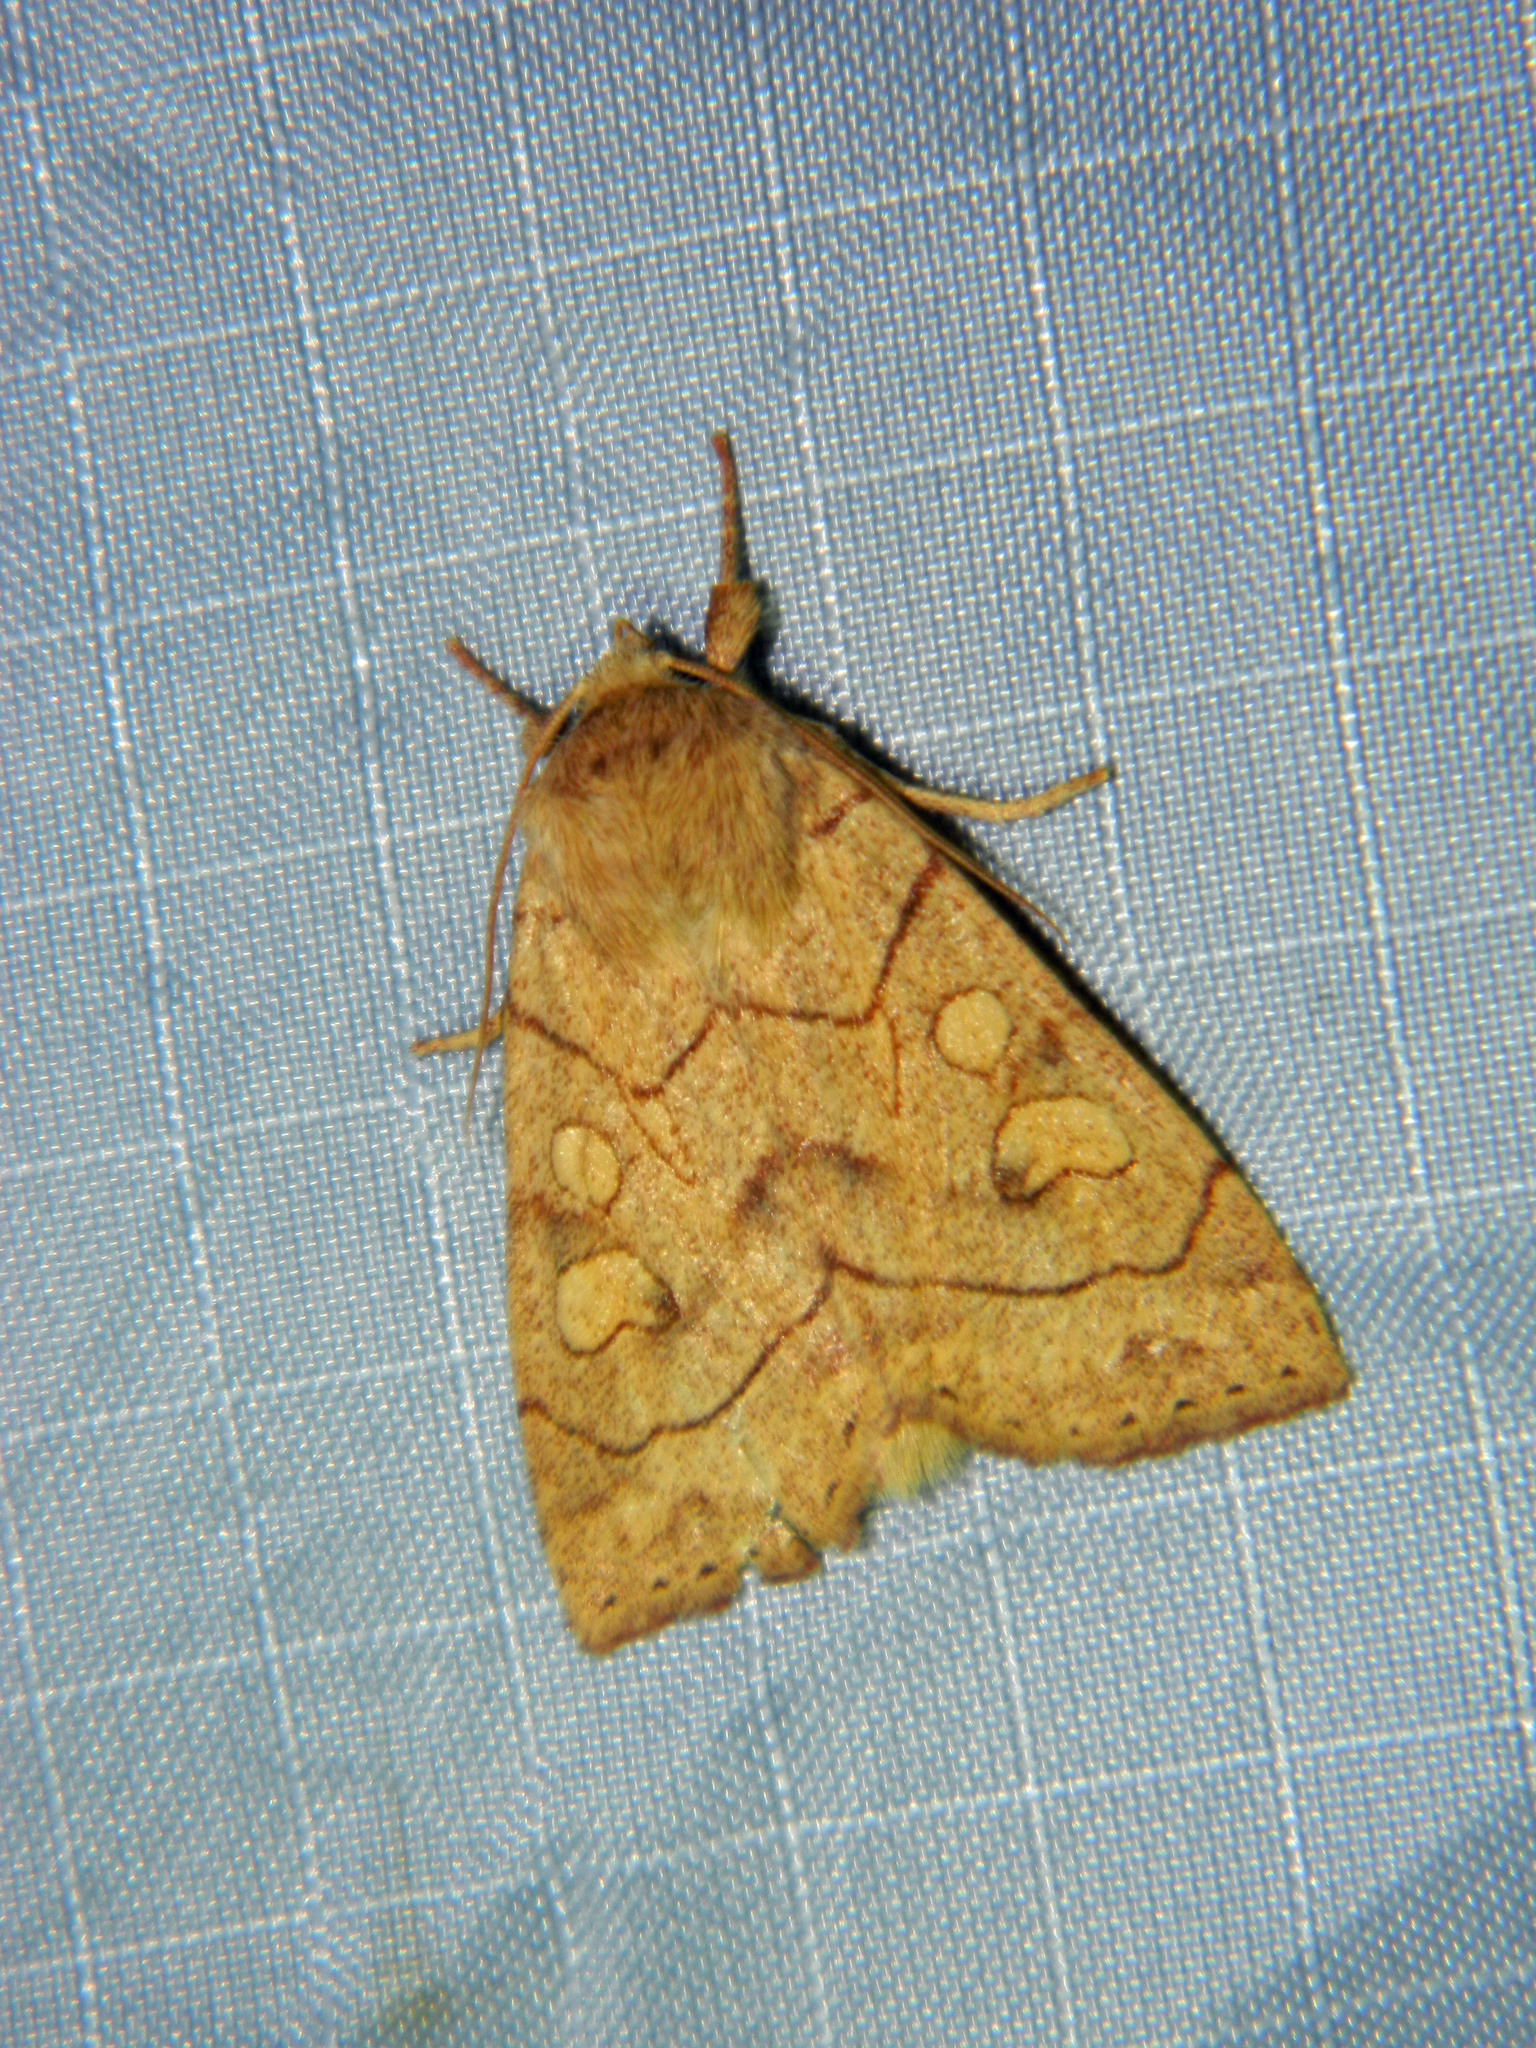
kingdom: Animalia
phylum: Arthropoda
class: Insecta
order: Lepidoptera
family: Noctuidae
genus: Enargia
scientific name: Enargia decolor
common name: Aspen twoleaf tier moth
